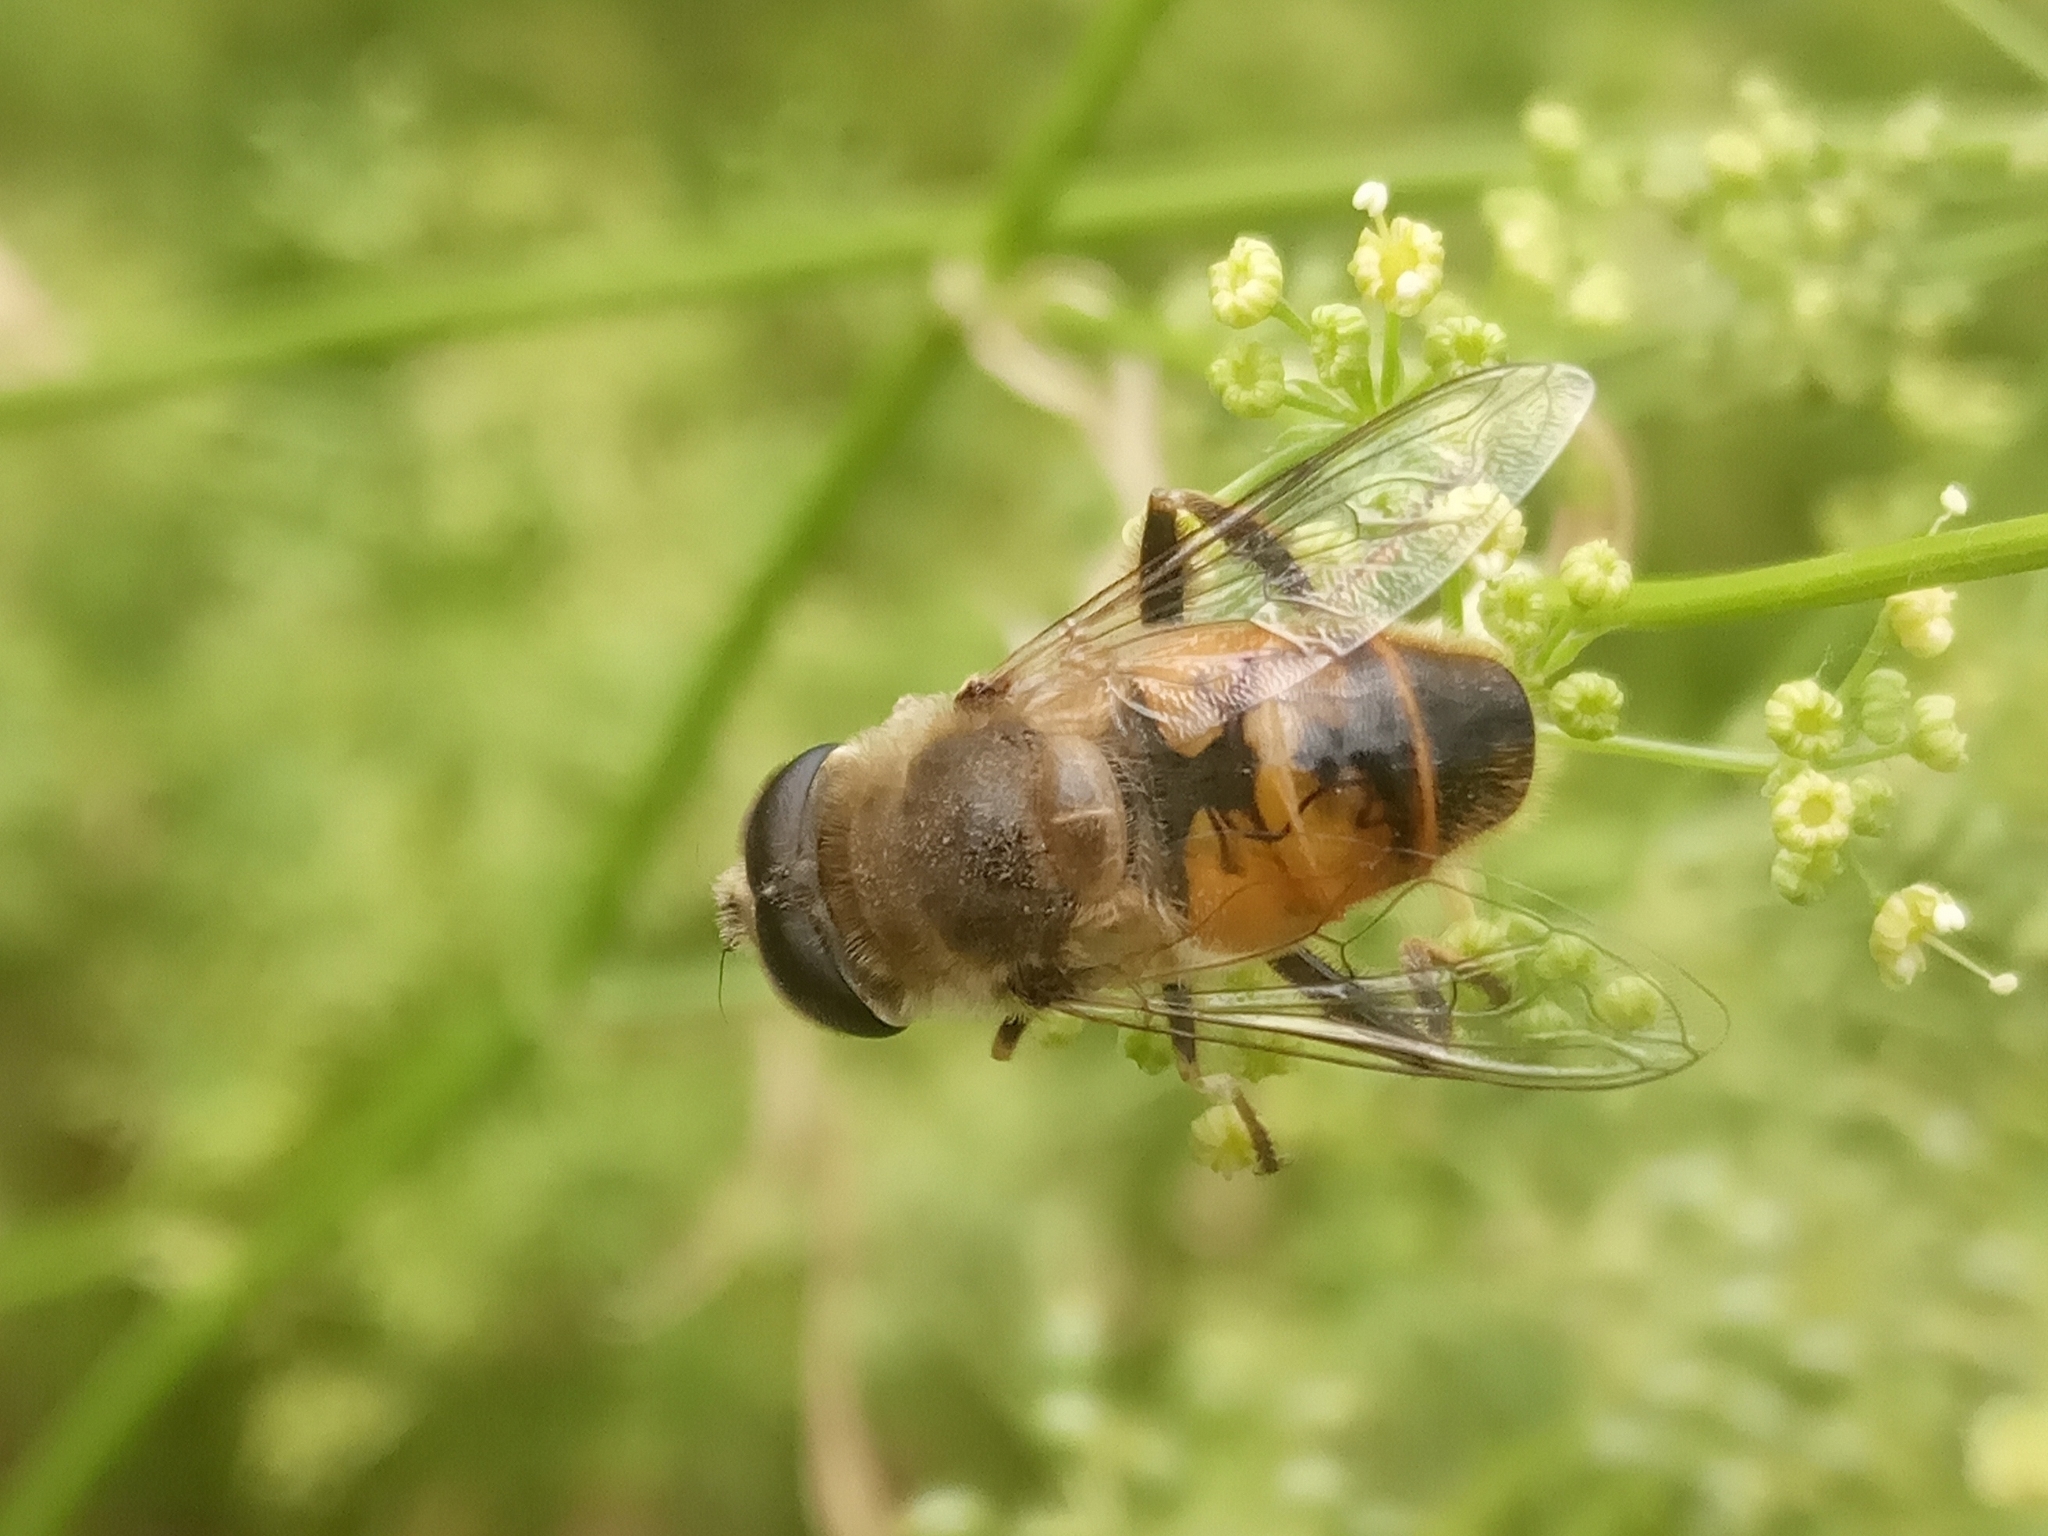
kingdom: Animalia
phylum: Arthropoda
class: Insecta
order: Diptera
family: Syrphidae
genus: Eristalis
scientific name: Eristalis tenax
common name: Drone fly
